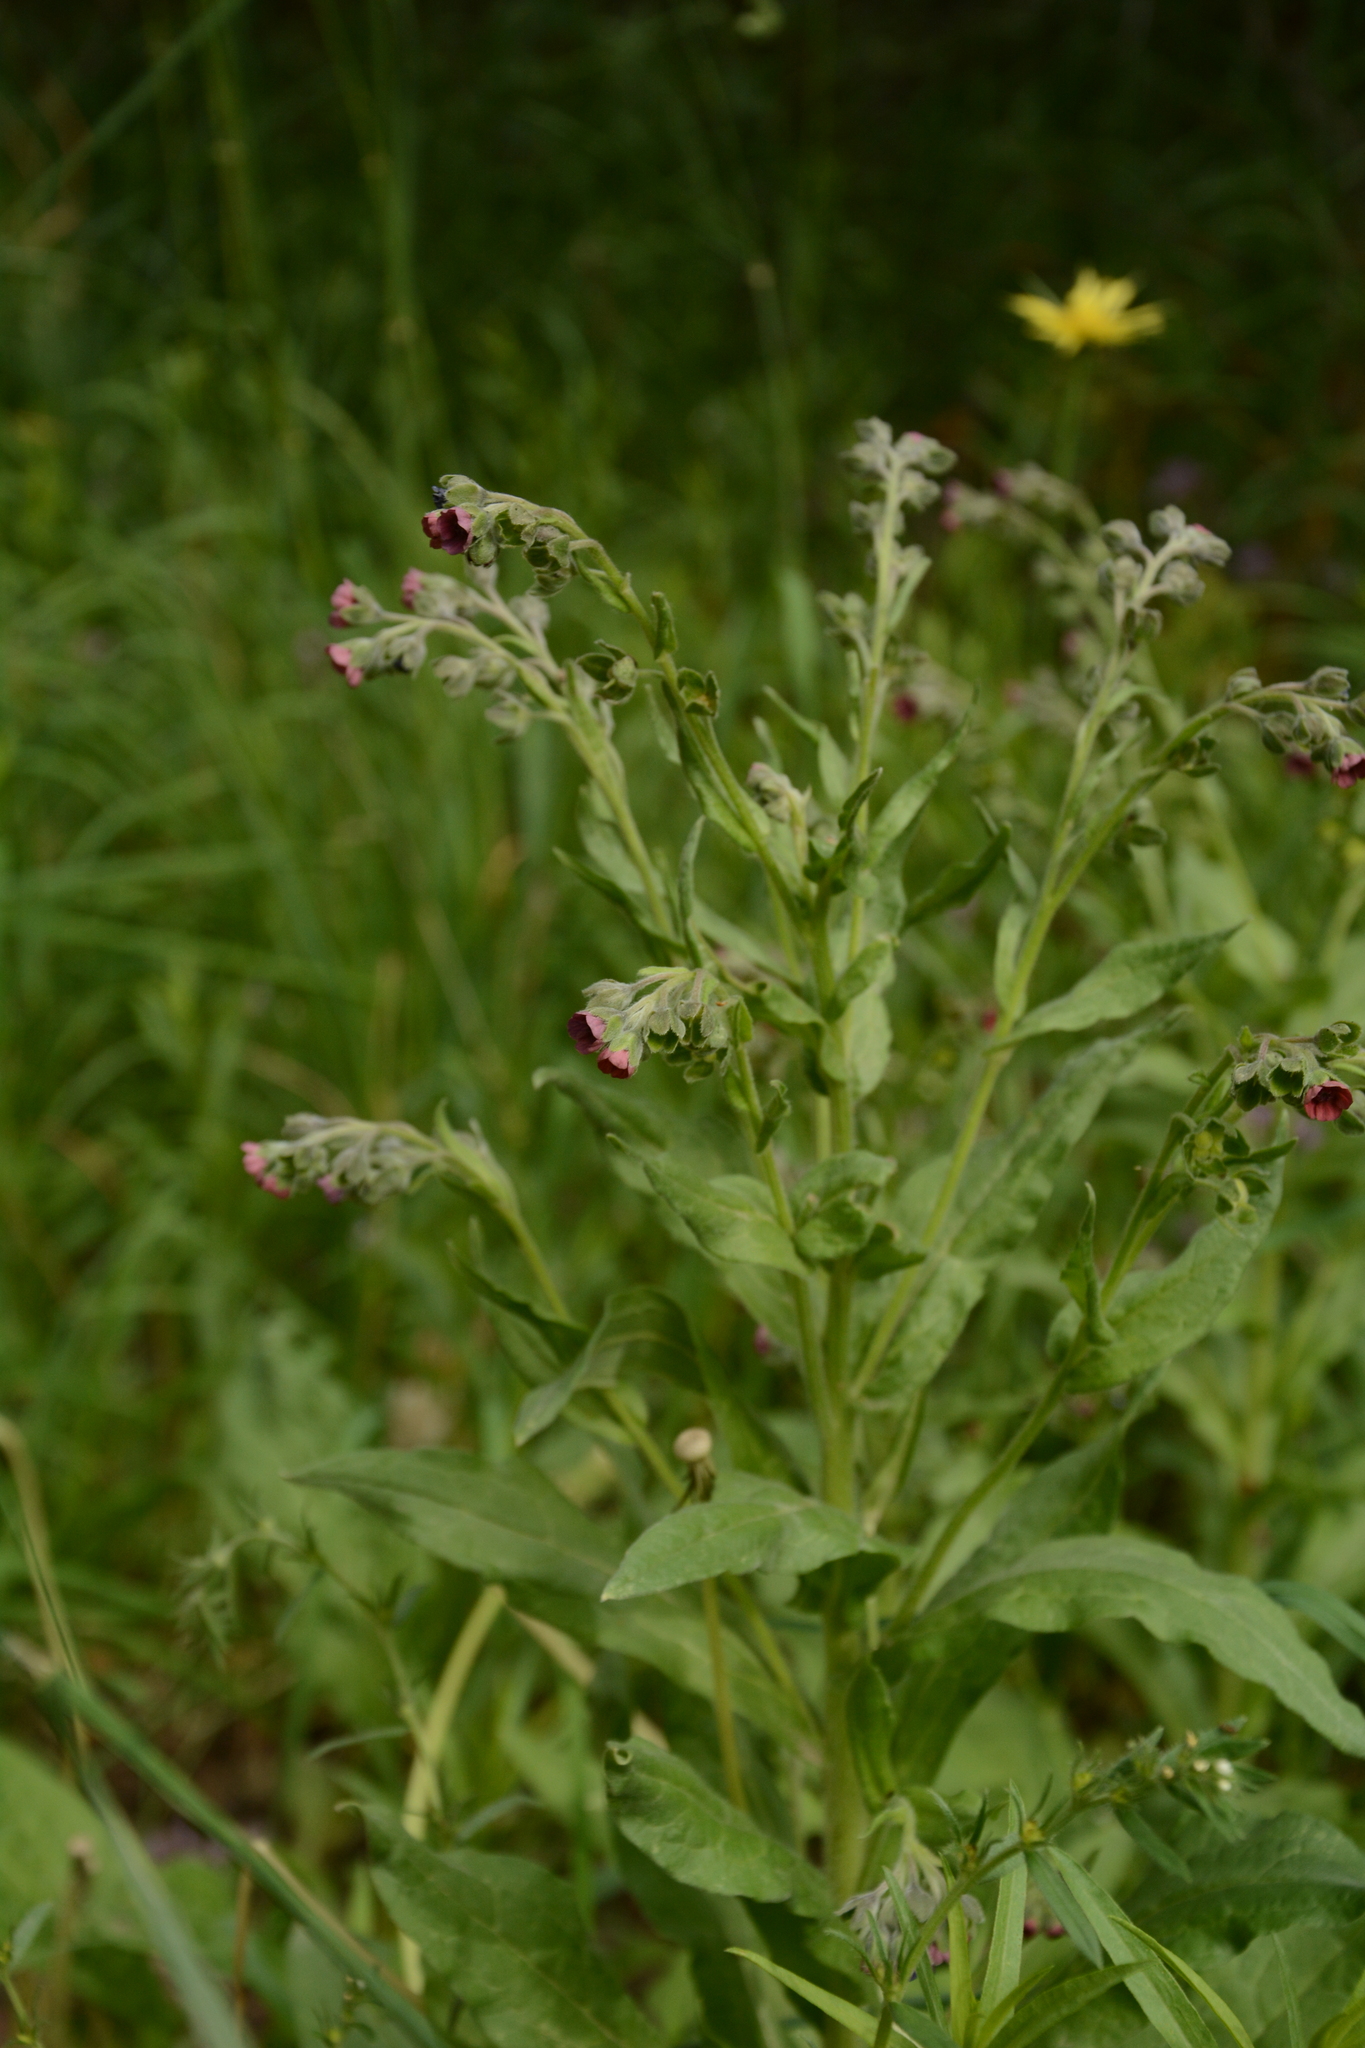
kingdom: Plantae
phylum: Tracheophyta
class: Magnoliopsida
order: Boraginales
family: Boraginaceae
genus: Cynoglossum
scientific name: Cynoglossum officinale
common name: Hound's-tongue
